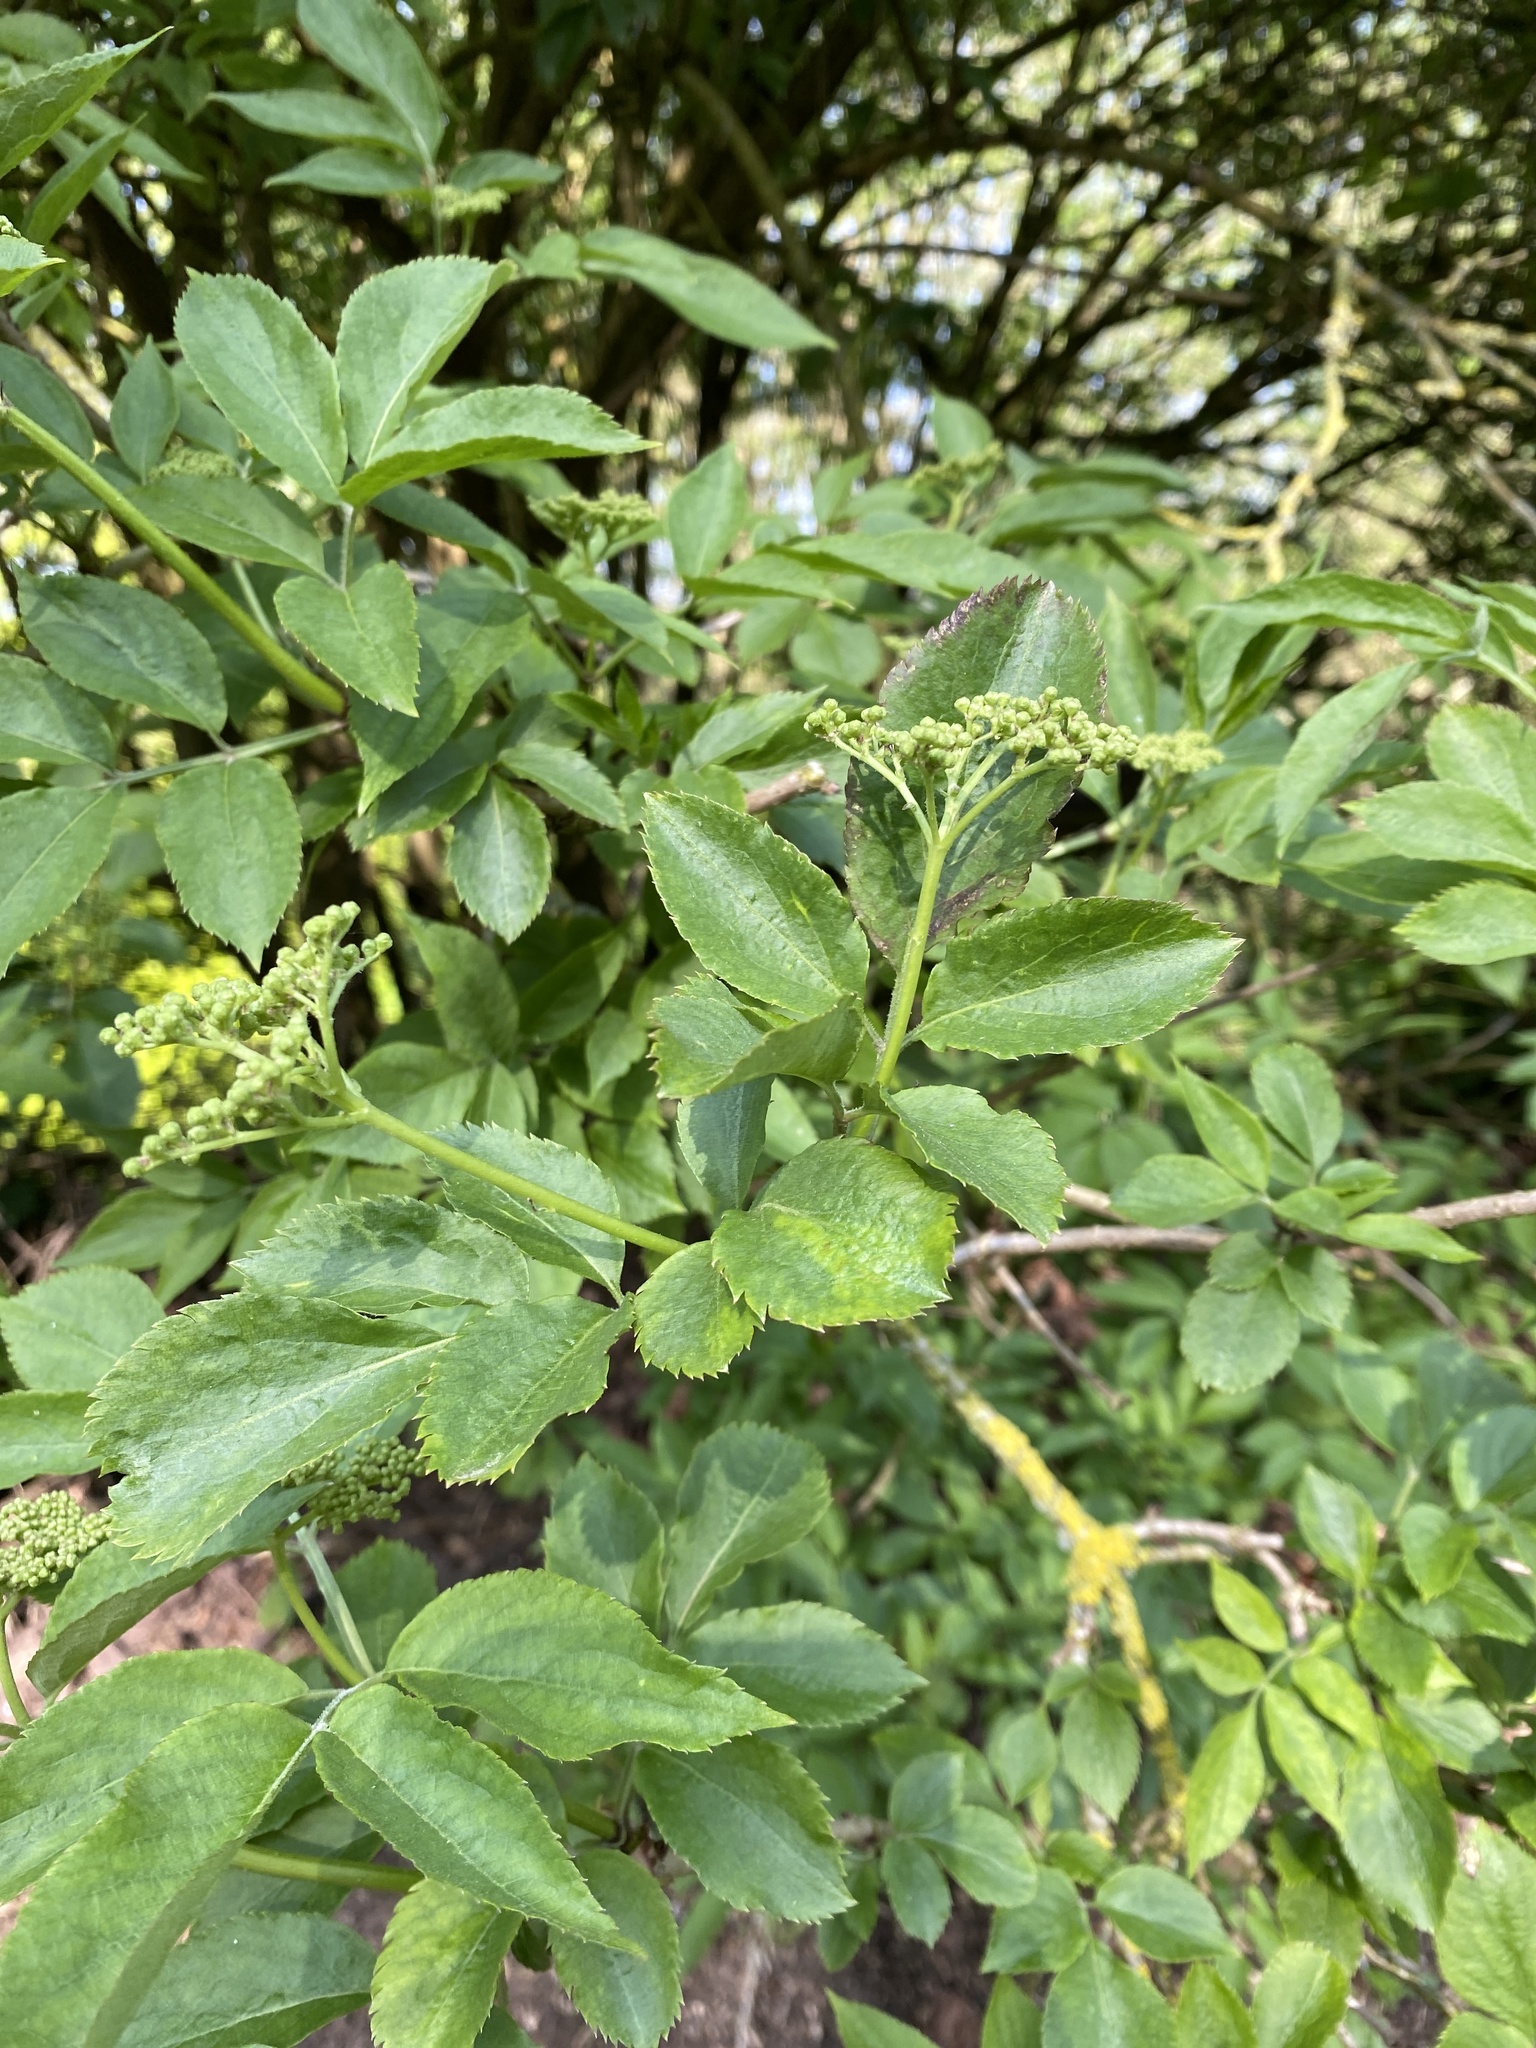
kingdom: Plantae
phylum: Tracheophyta
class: Magnoliopsida
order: Dipsacales
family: Viburnaceae
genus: Sambucus
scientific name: Sambucus nigra
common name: Elder
